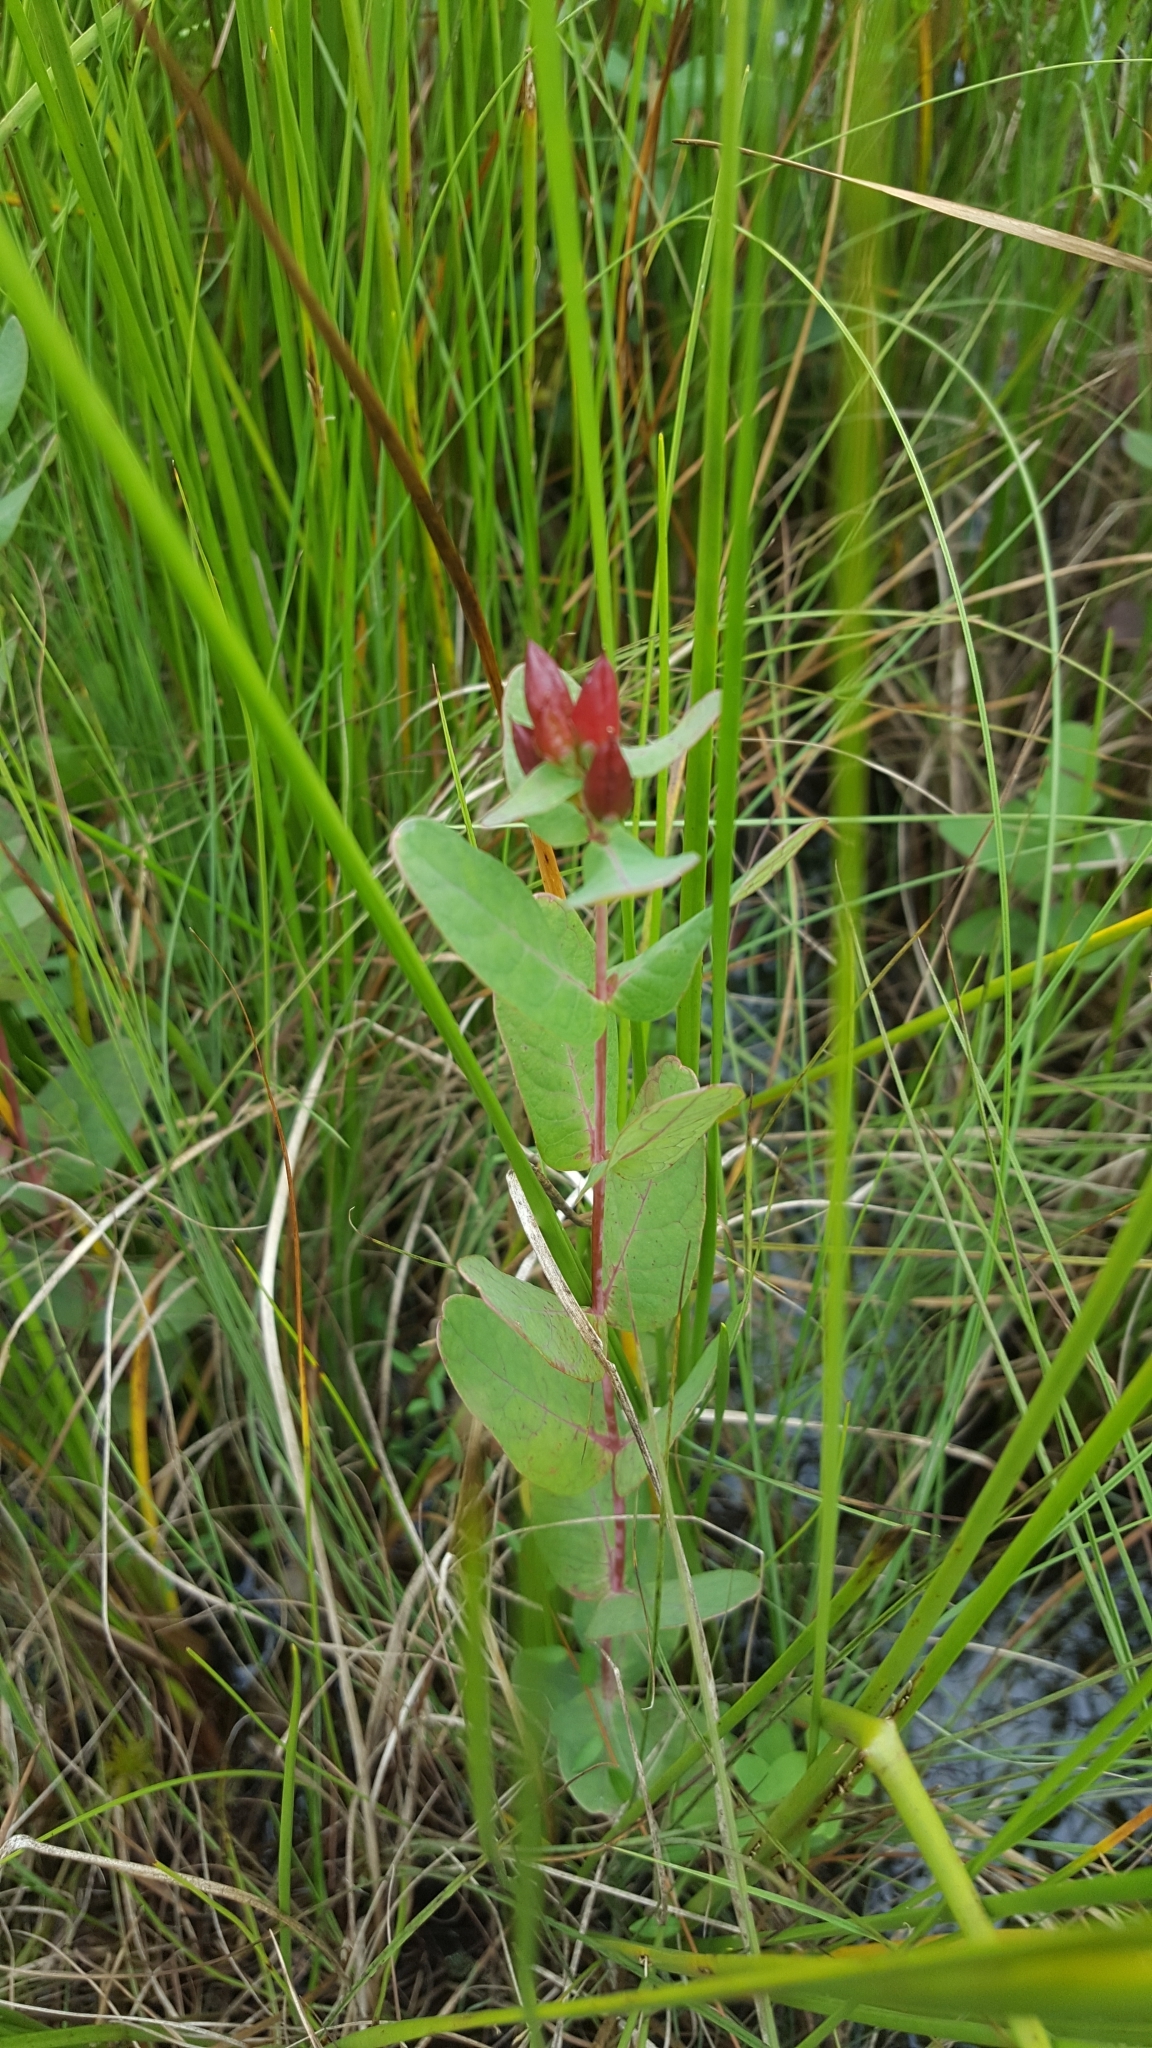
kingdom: Plantae
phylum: Tracheophyta
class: Magnoliopsida
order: Malpighiales
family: Hypericaceae
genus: Triadenum
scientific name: Triadenum fraseri
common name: Fraser's marsh st. johnswort
